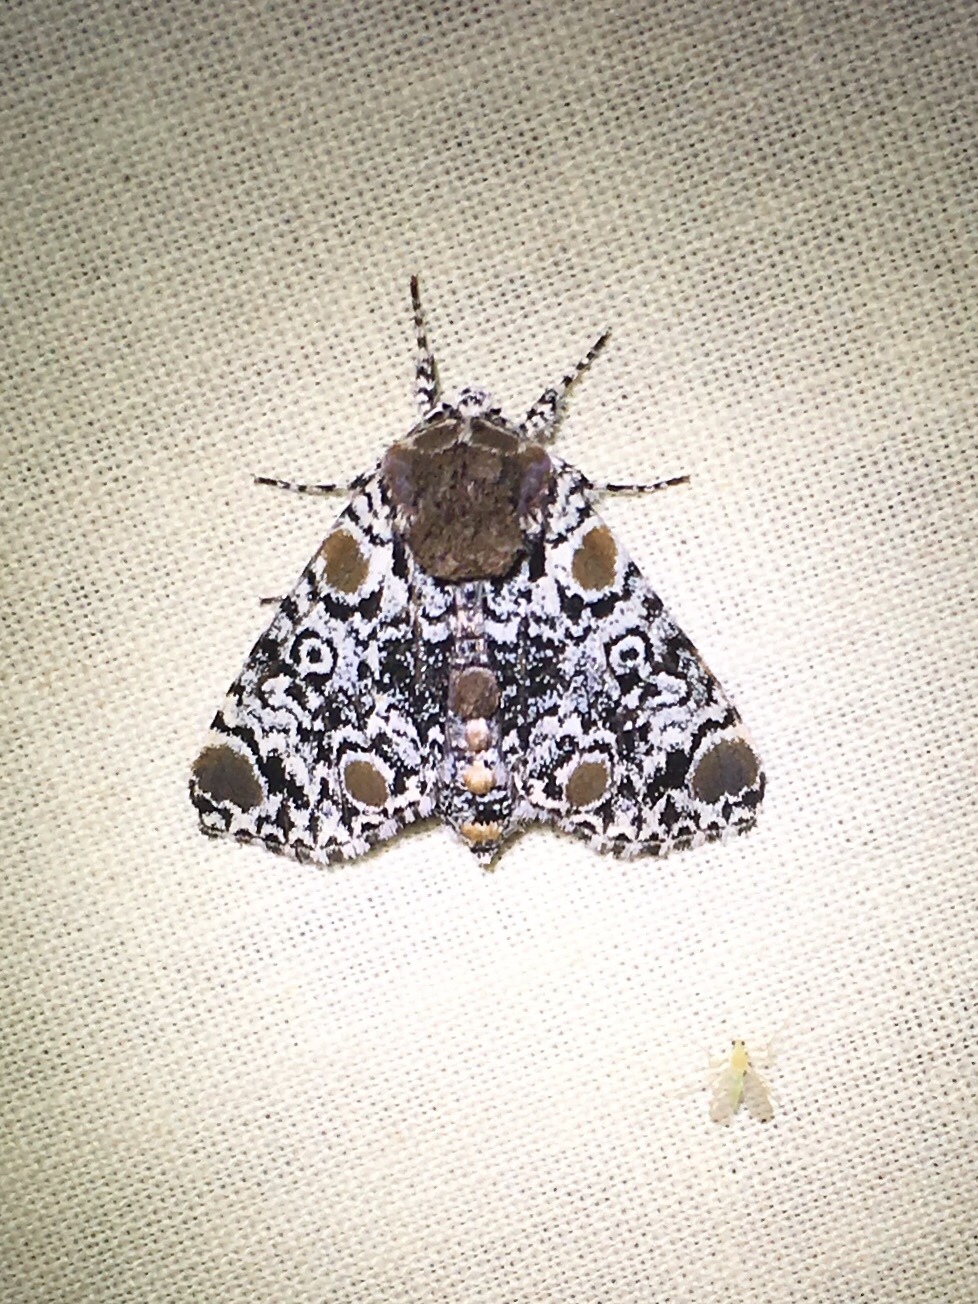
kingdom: Animalia
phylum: Arthropoda
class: Insecta
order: Lepidoptera
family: Noctuidae
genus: Harrisimemna
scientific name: Harrisimemna trisignata
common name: Harris threespot
